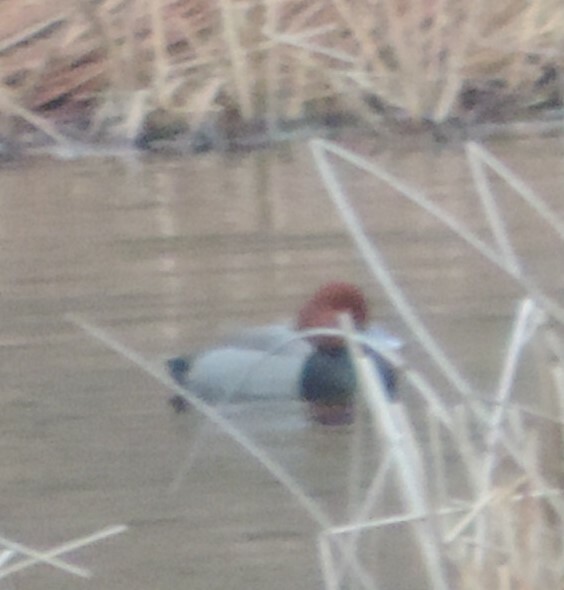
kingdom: Animalia
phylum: Chordata
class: Aves
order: Anseriformes
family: Anatidae
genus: Aythya
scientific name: Aythya americana
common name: Redhead
